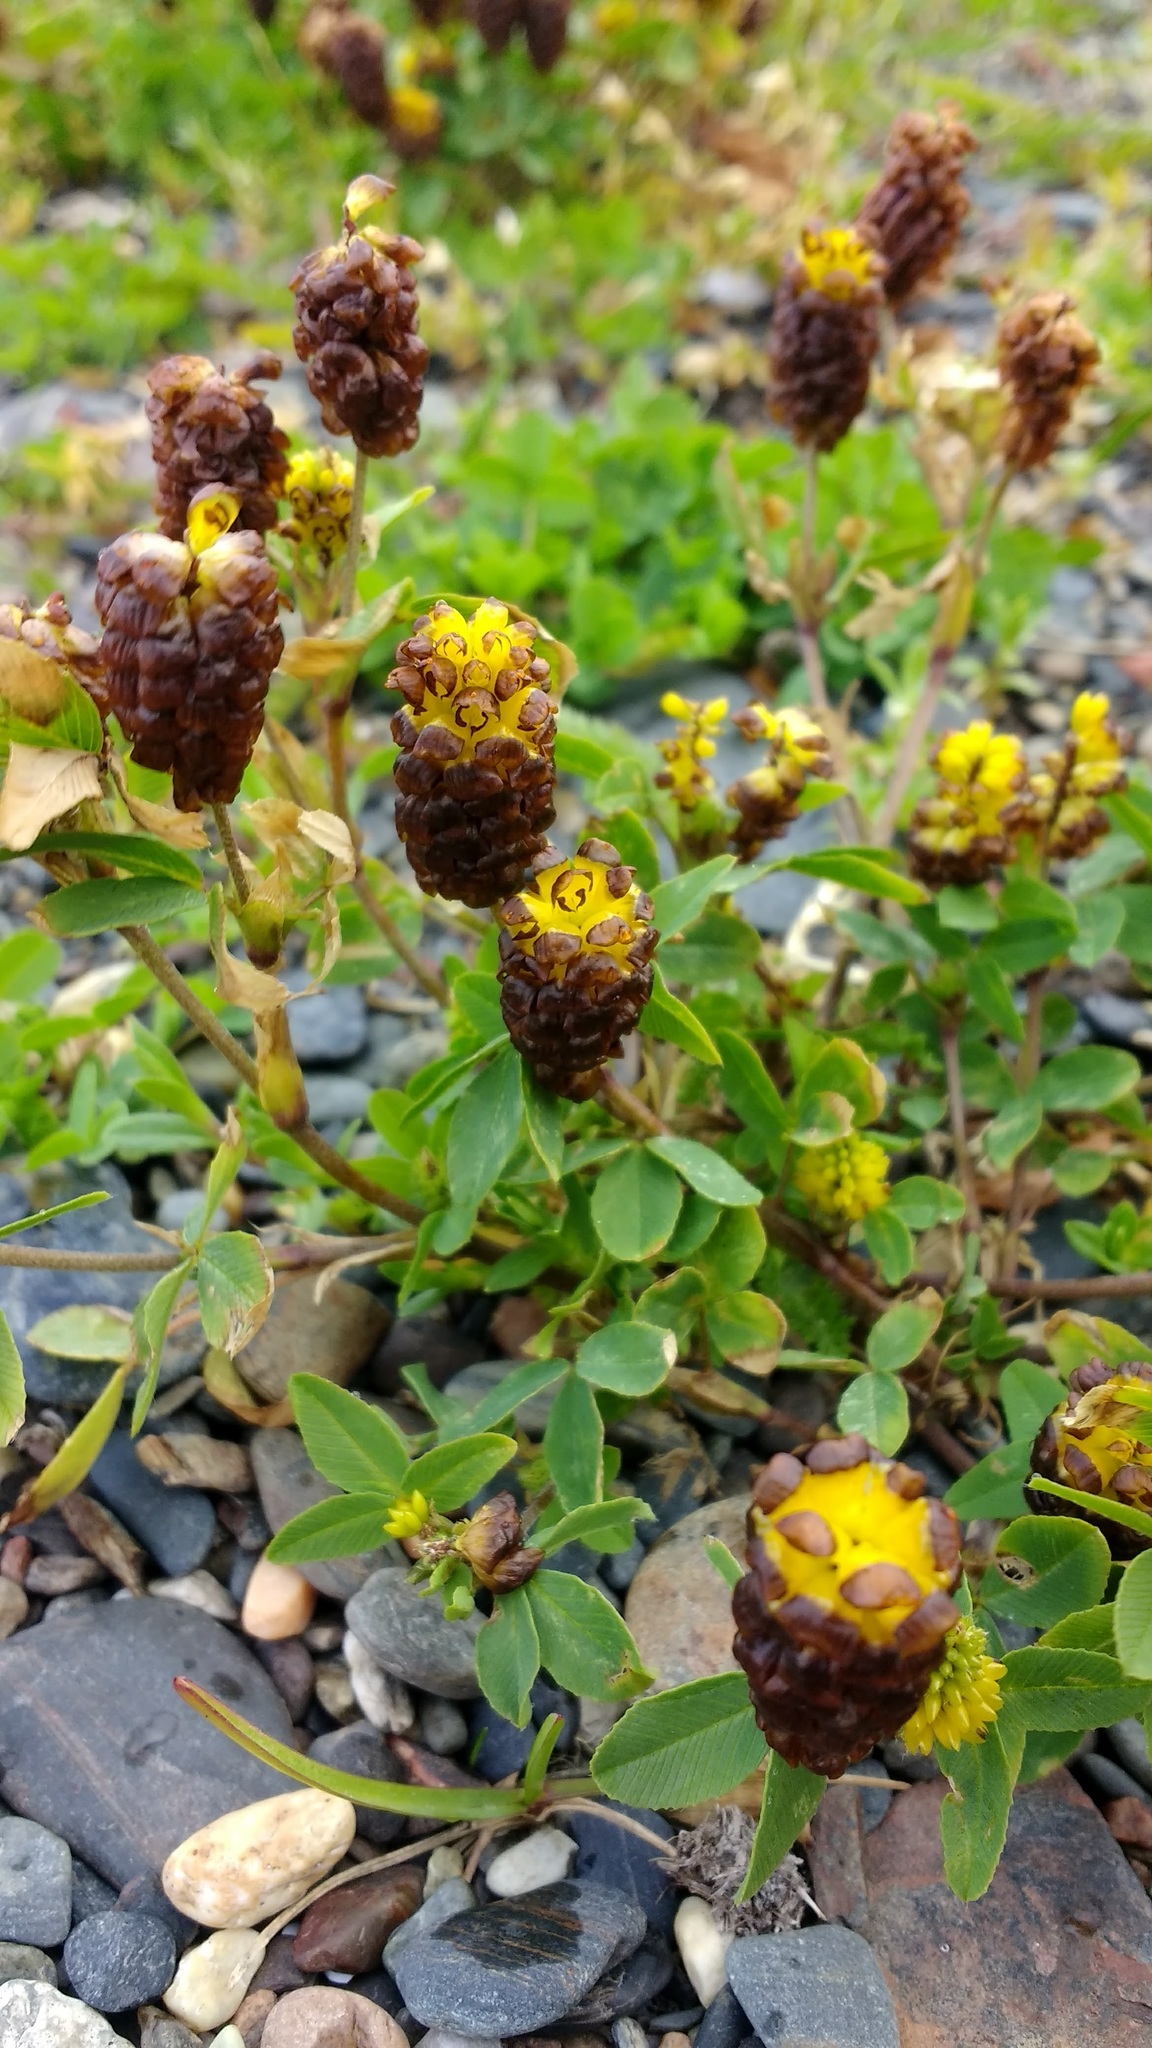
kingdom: Plantae
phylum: Tracheophyta
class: Magnoliopsida
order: Fabales
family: Fabaceae
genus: Trifolium
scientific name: Trifolium spadiceum
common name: Brown moor clover
